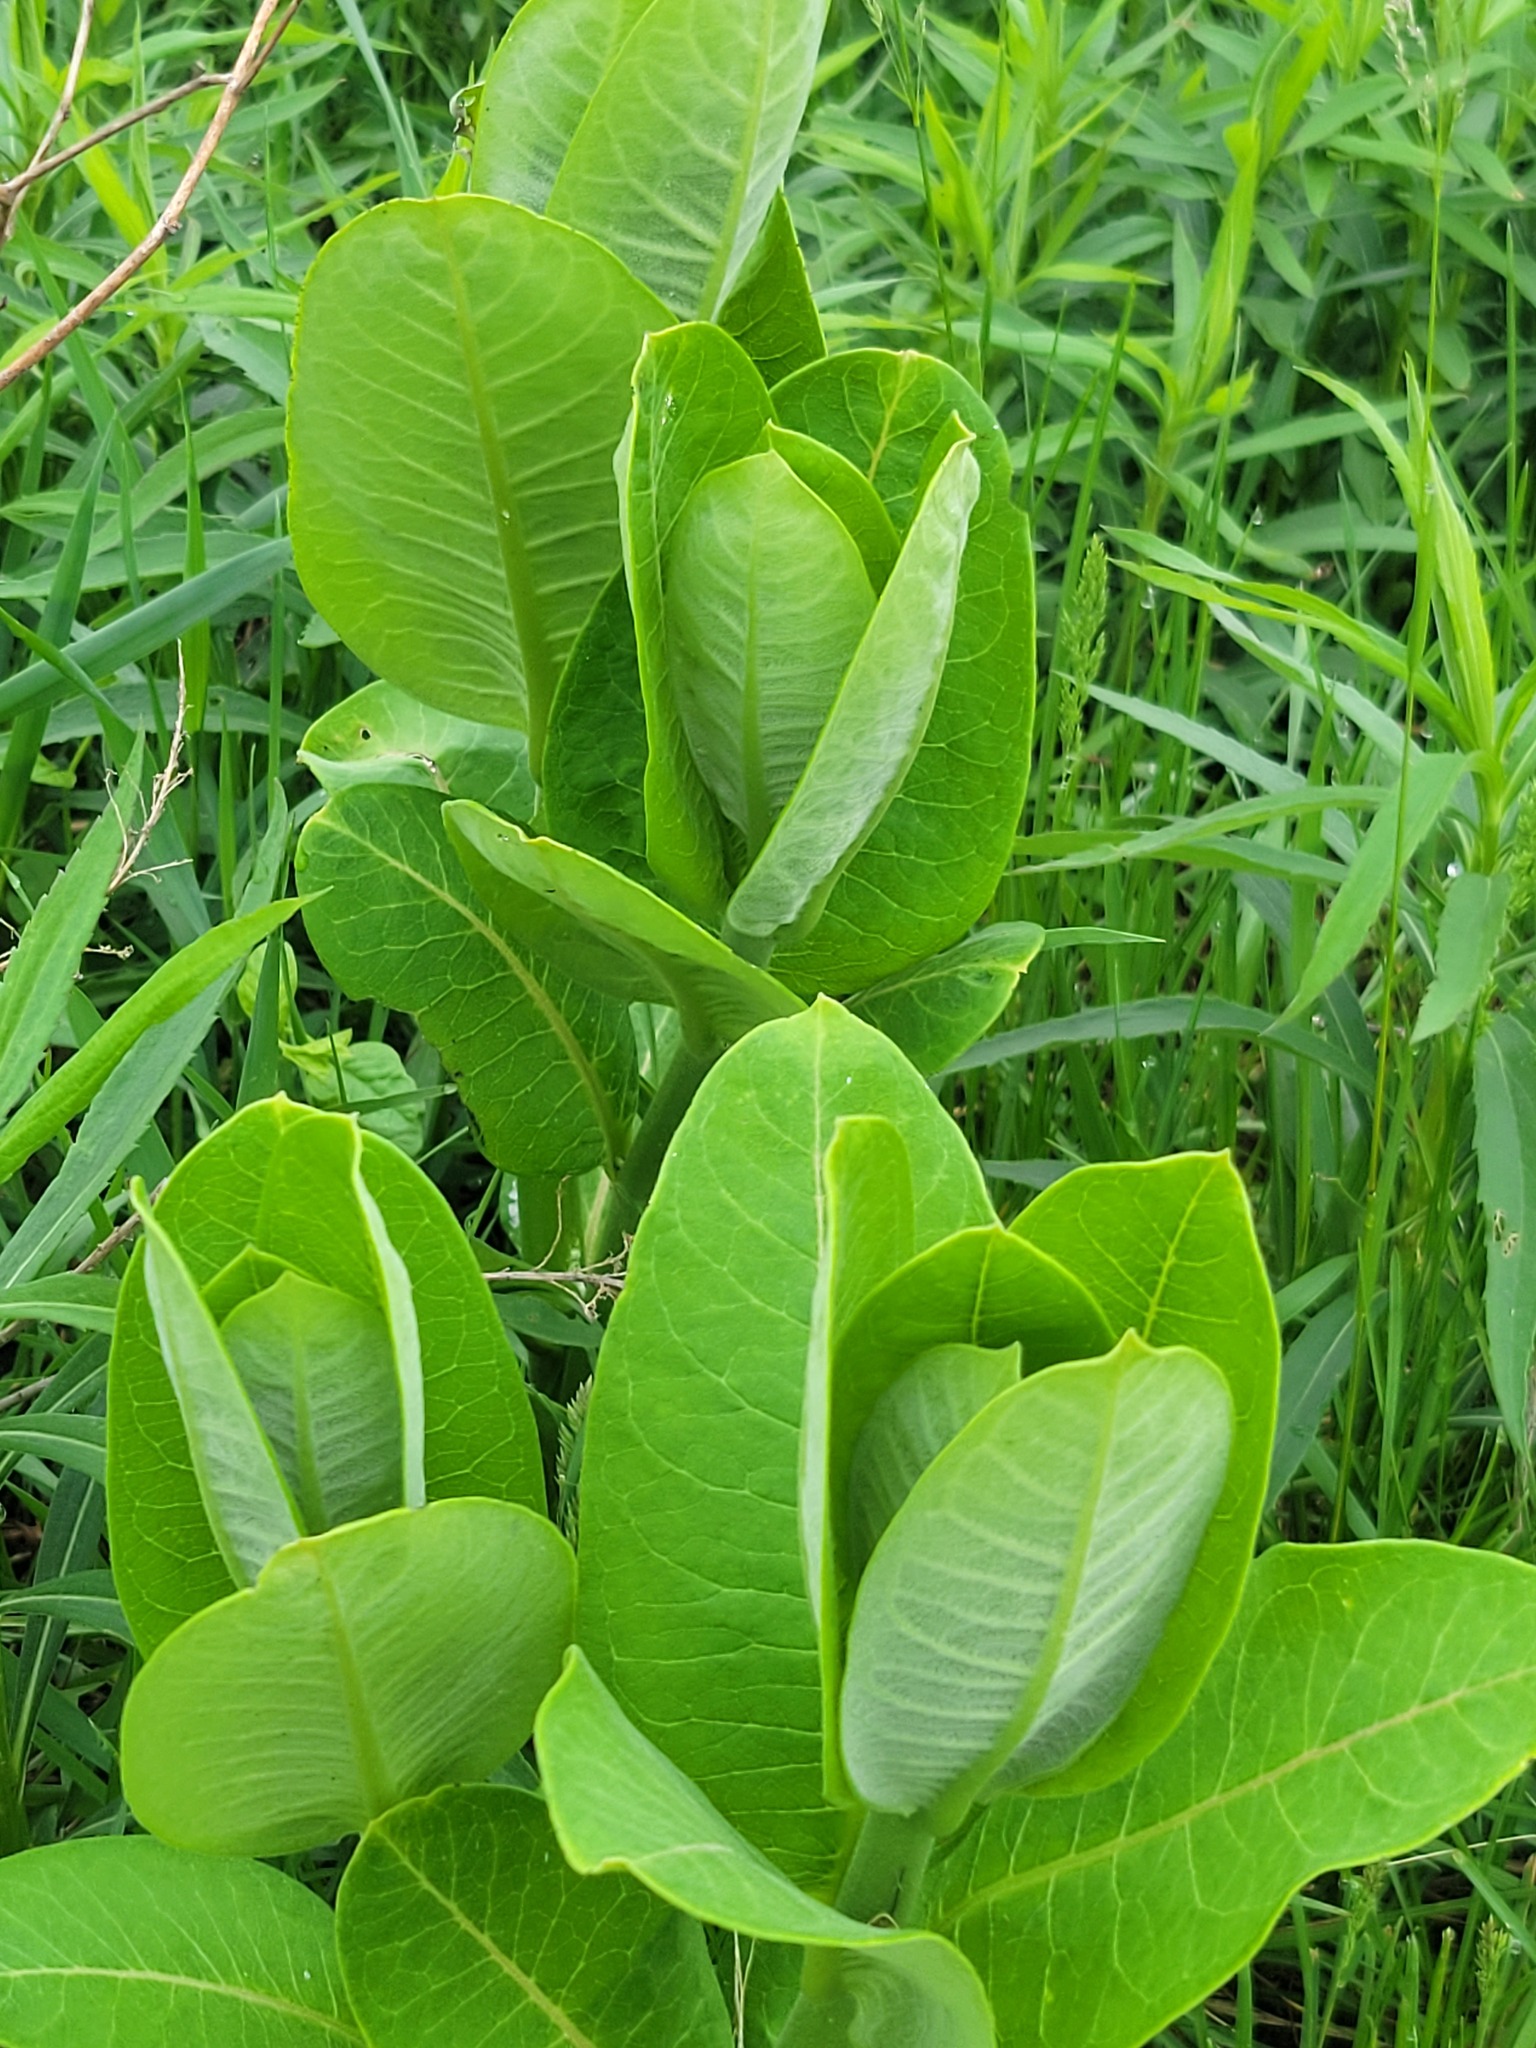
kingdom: Plantae
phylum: Tracheophyta
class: Magnoliopsida
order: Gentianales
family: Apocynaceae
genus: Asclepias
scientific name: Asclepias syriaca
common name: Common milkweed
